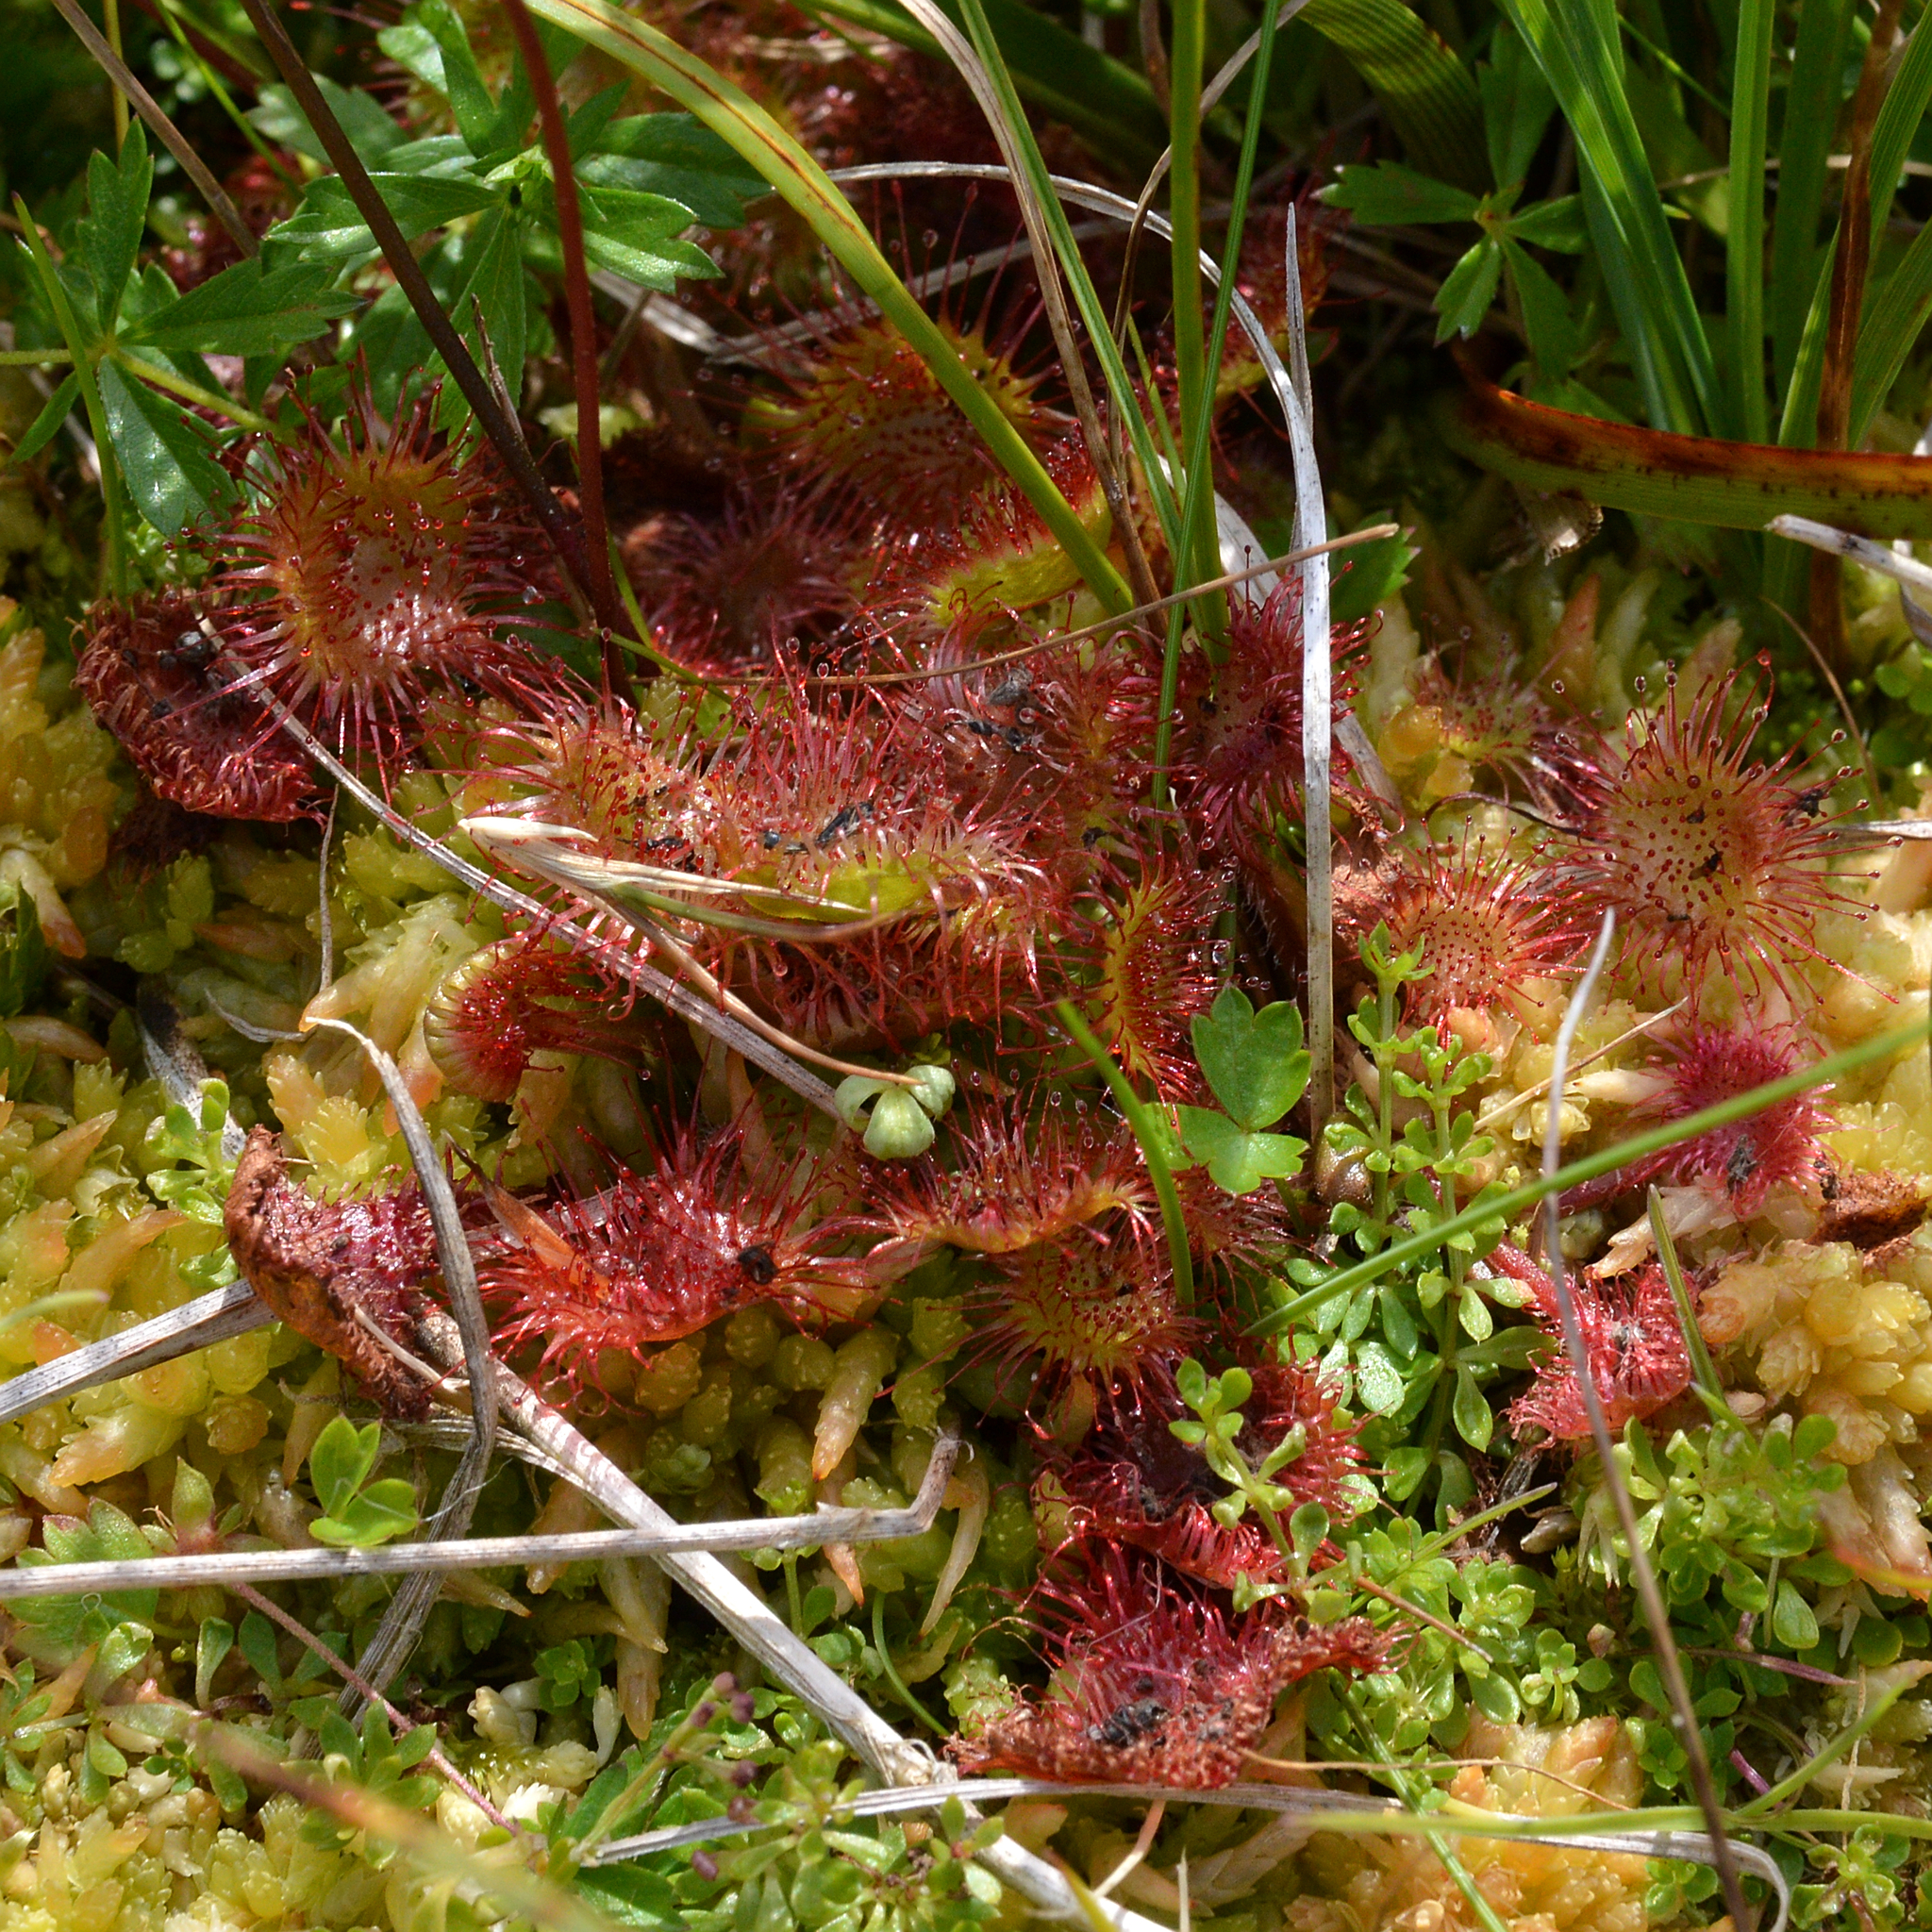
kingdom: Plantae
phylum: Tracheophyta
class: Magnoliopsida
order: Caryophyllales
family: Droseraceae
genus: Drosera
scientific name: Drosera rotundifolia
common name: Round-leaved sundew
